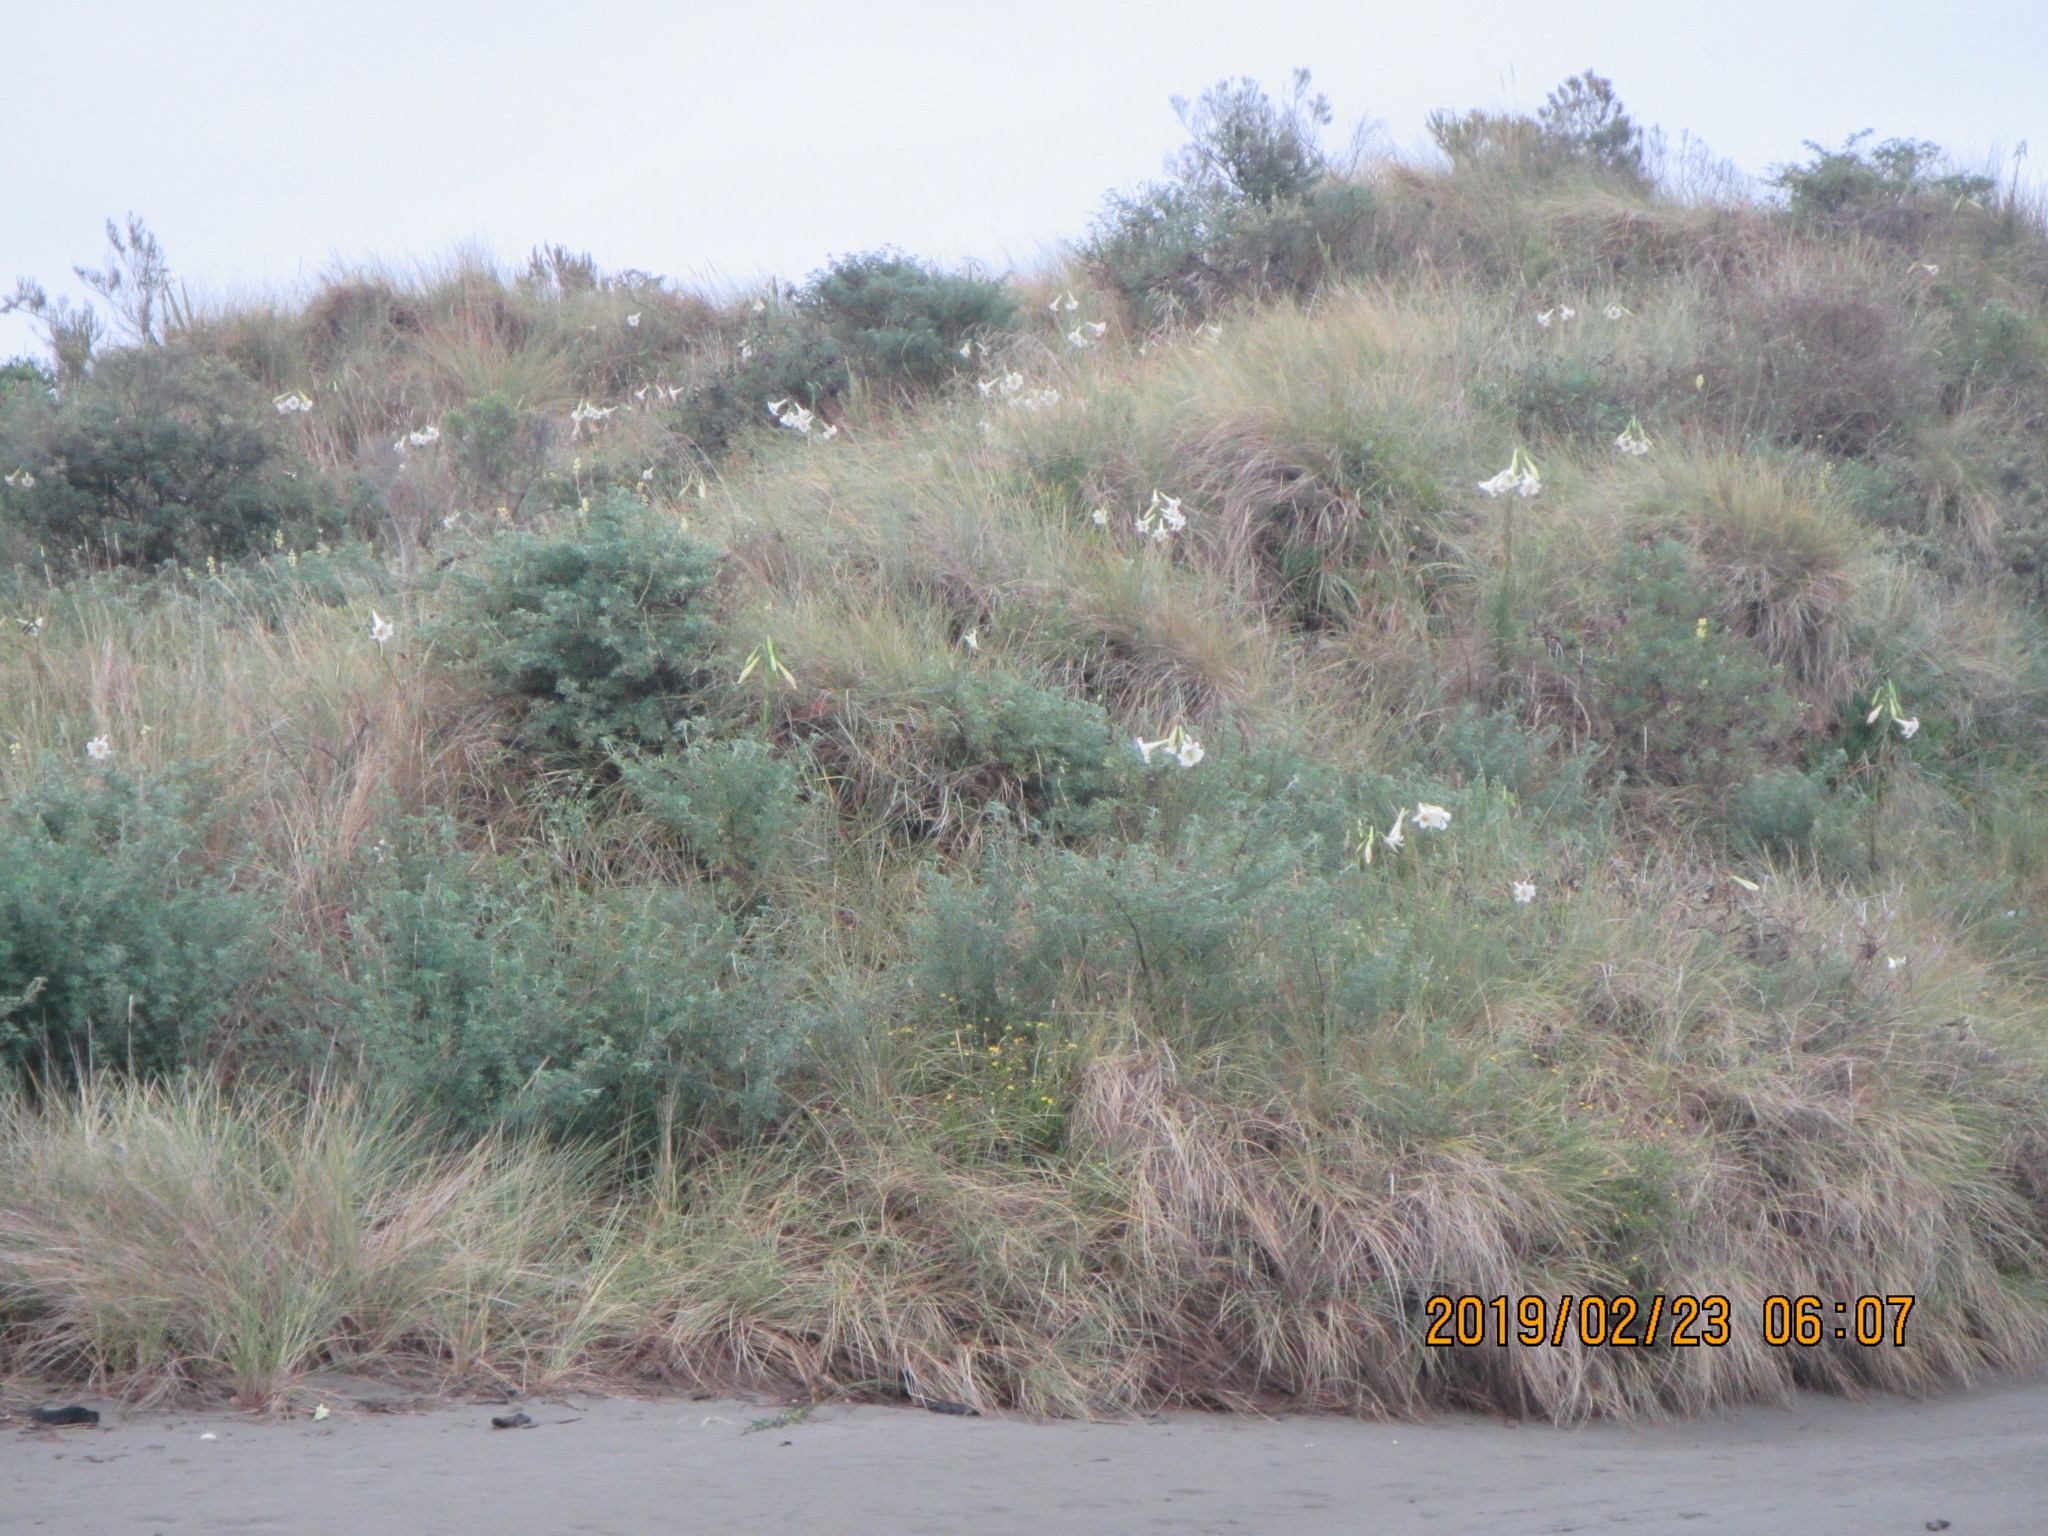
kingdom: Plantae
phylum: Tracheophyta
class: Liliopsida
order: Liliales
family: Liliaceae
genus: Lilium
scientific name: Lilium formosanum
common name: Formosa lily
